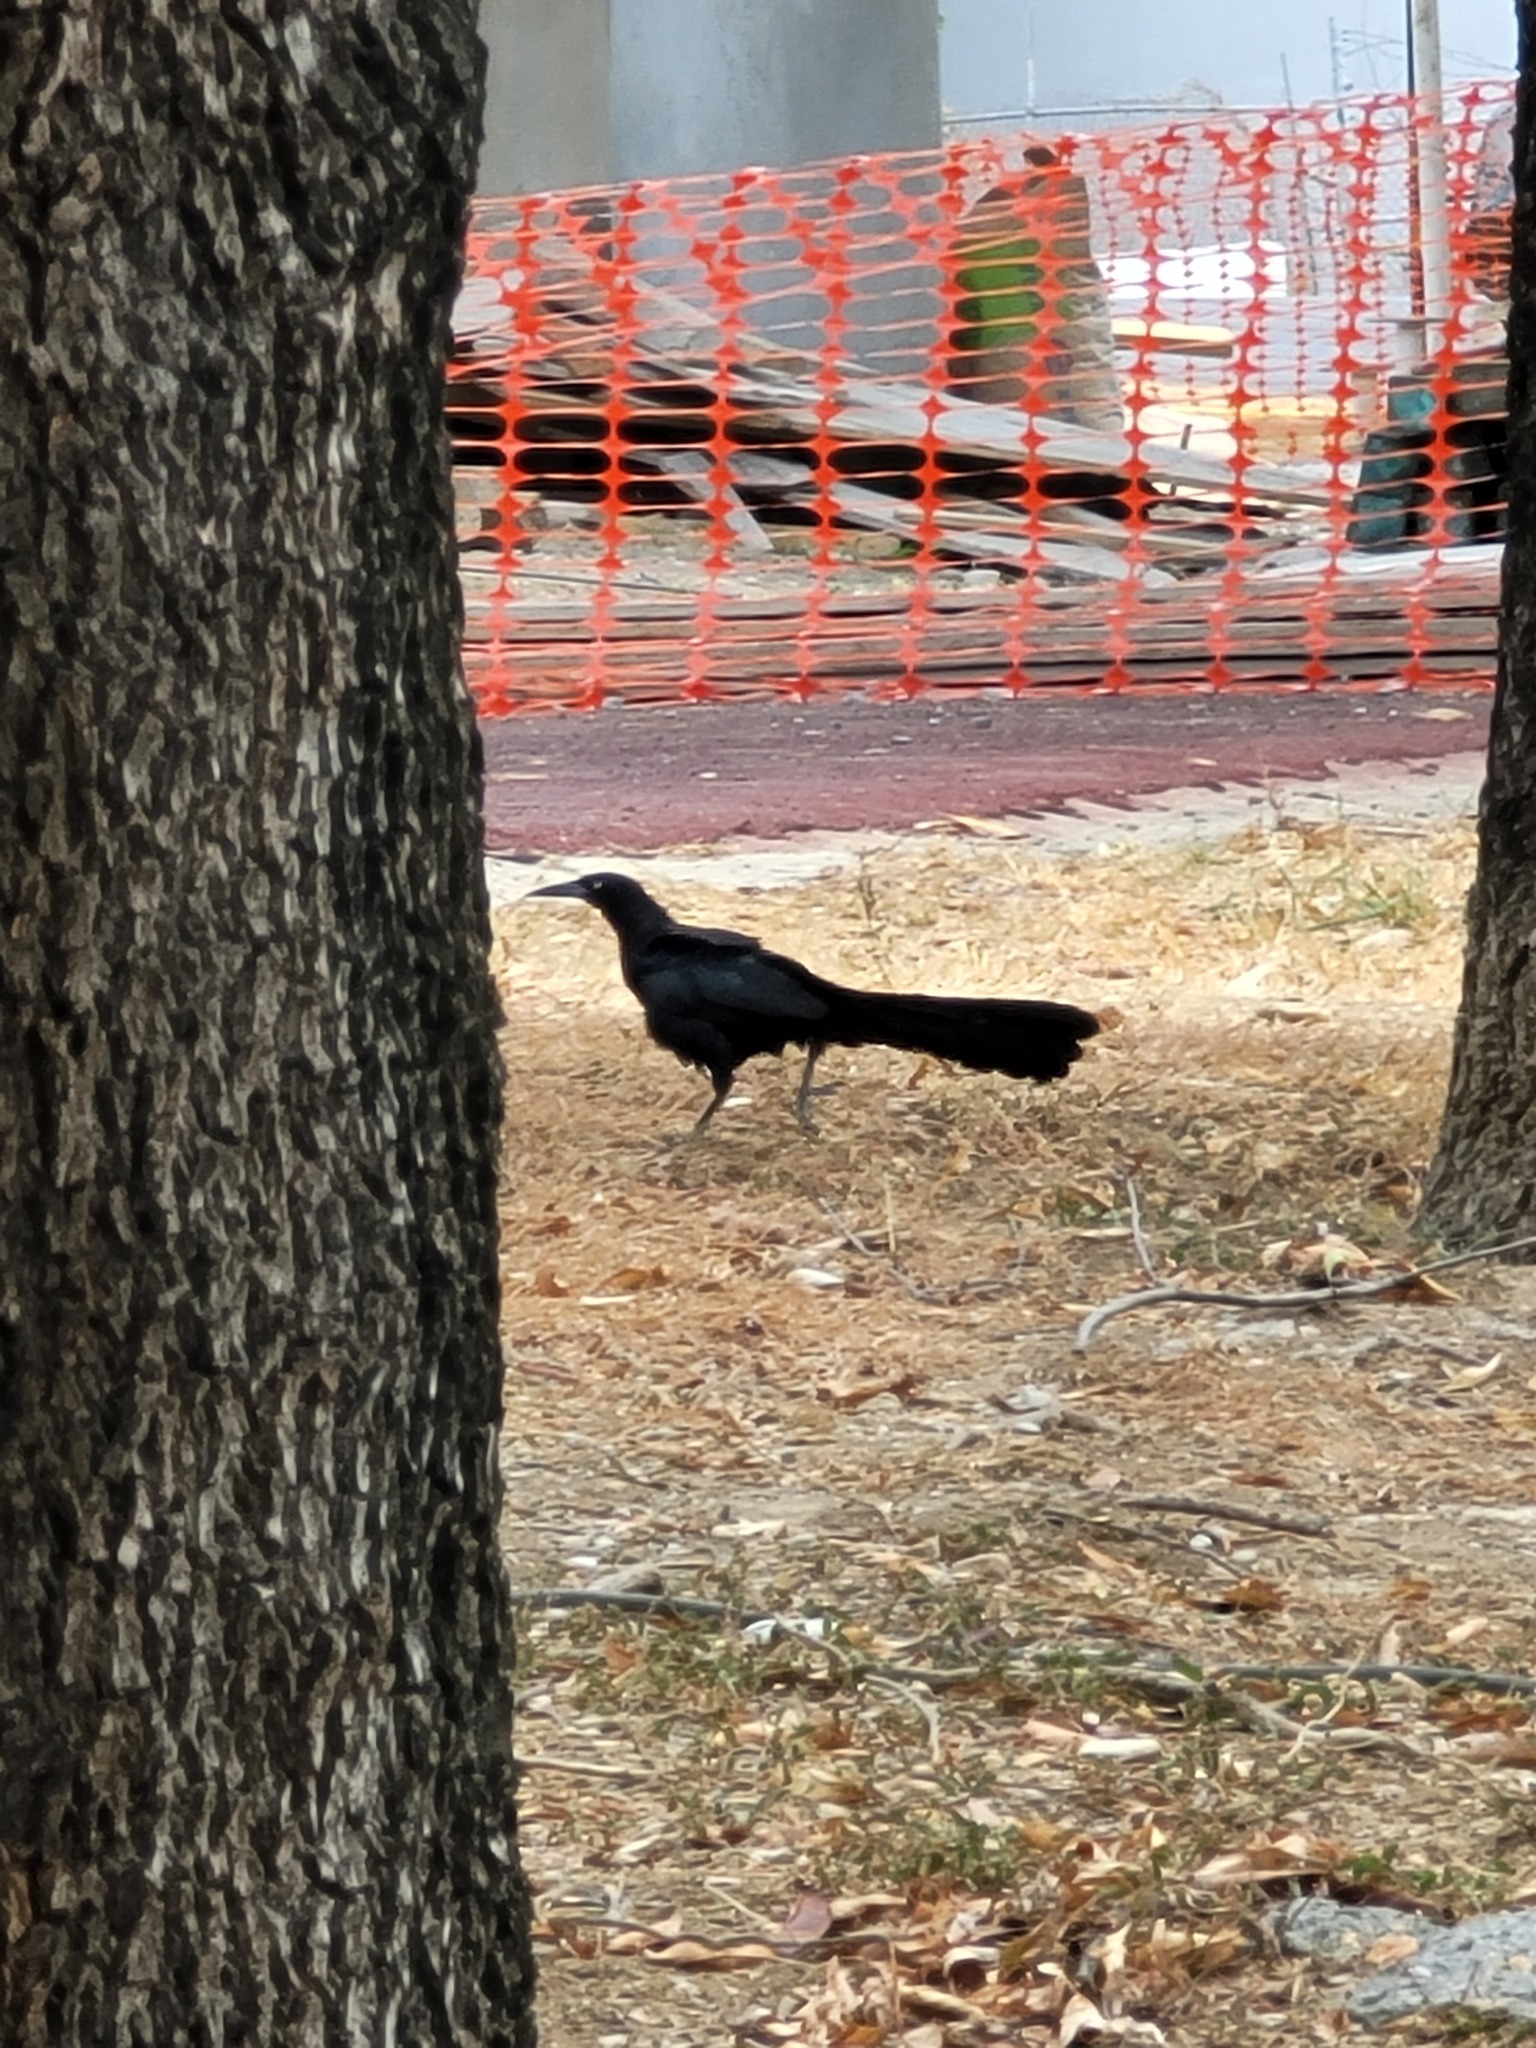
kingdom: Animalia
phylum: Chordata
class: Aves
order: Passeriformes
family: Icteridae
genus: Quiscalus
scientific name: Quiscalus mexicanus
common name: Great-tailed grackle
